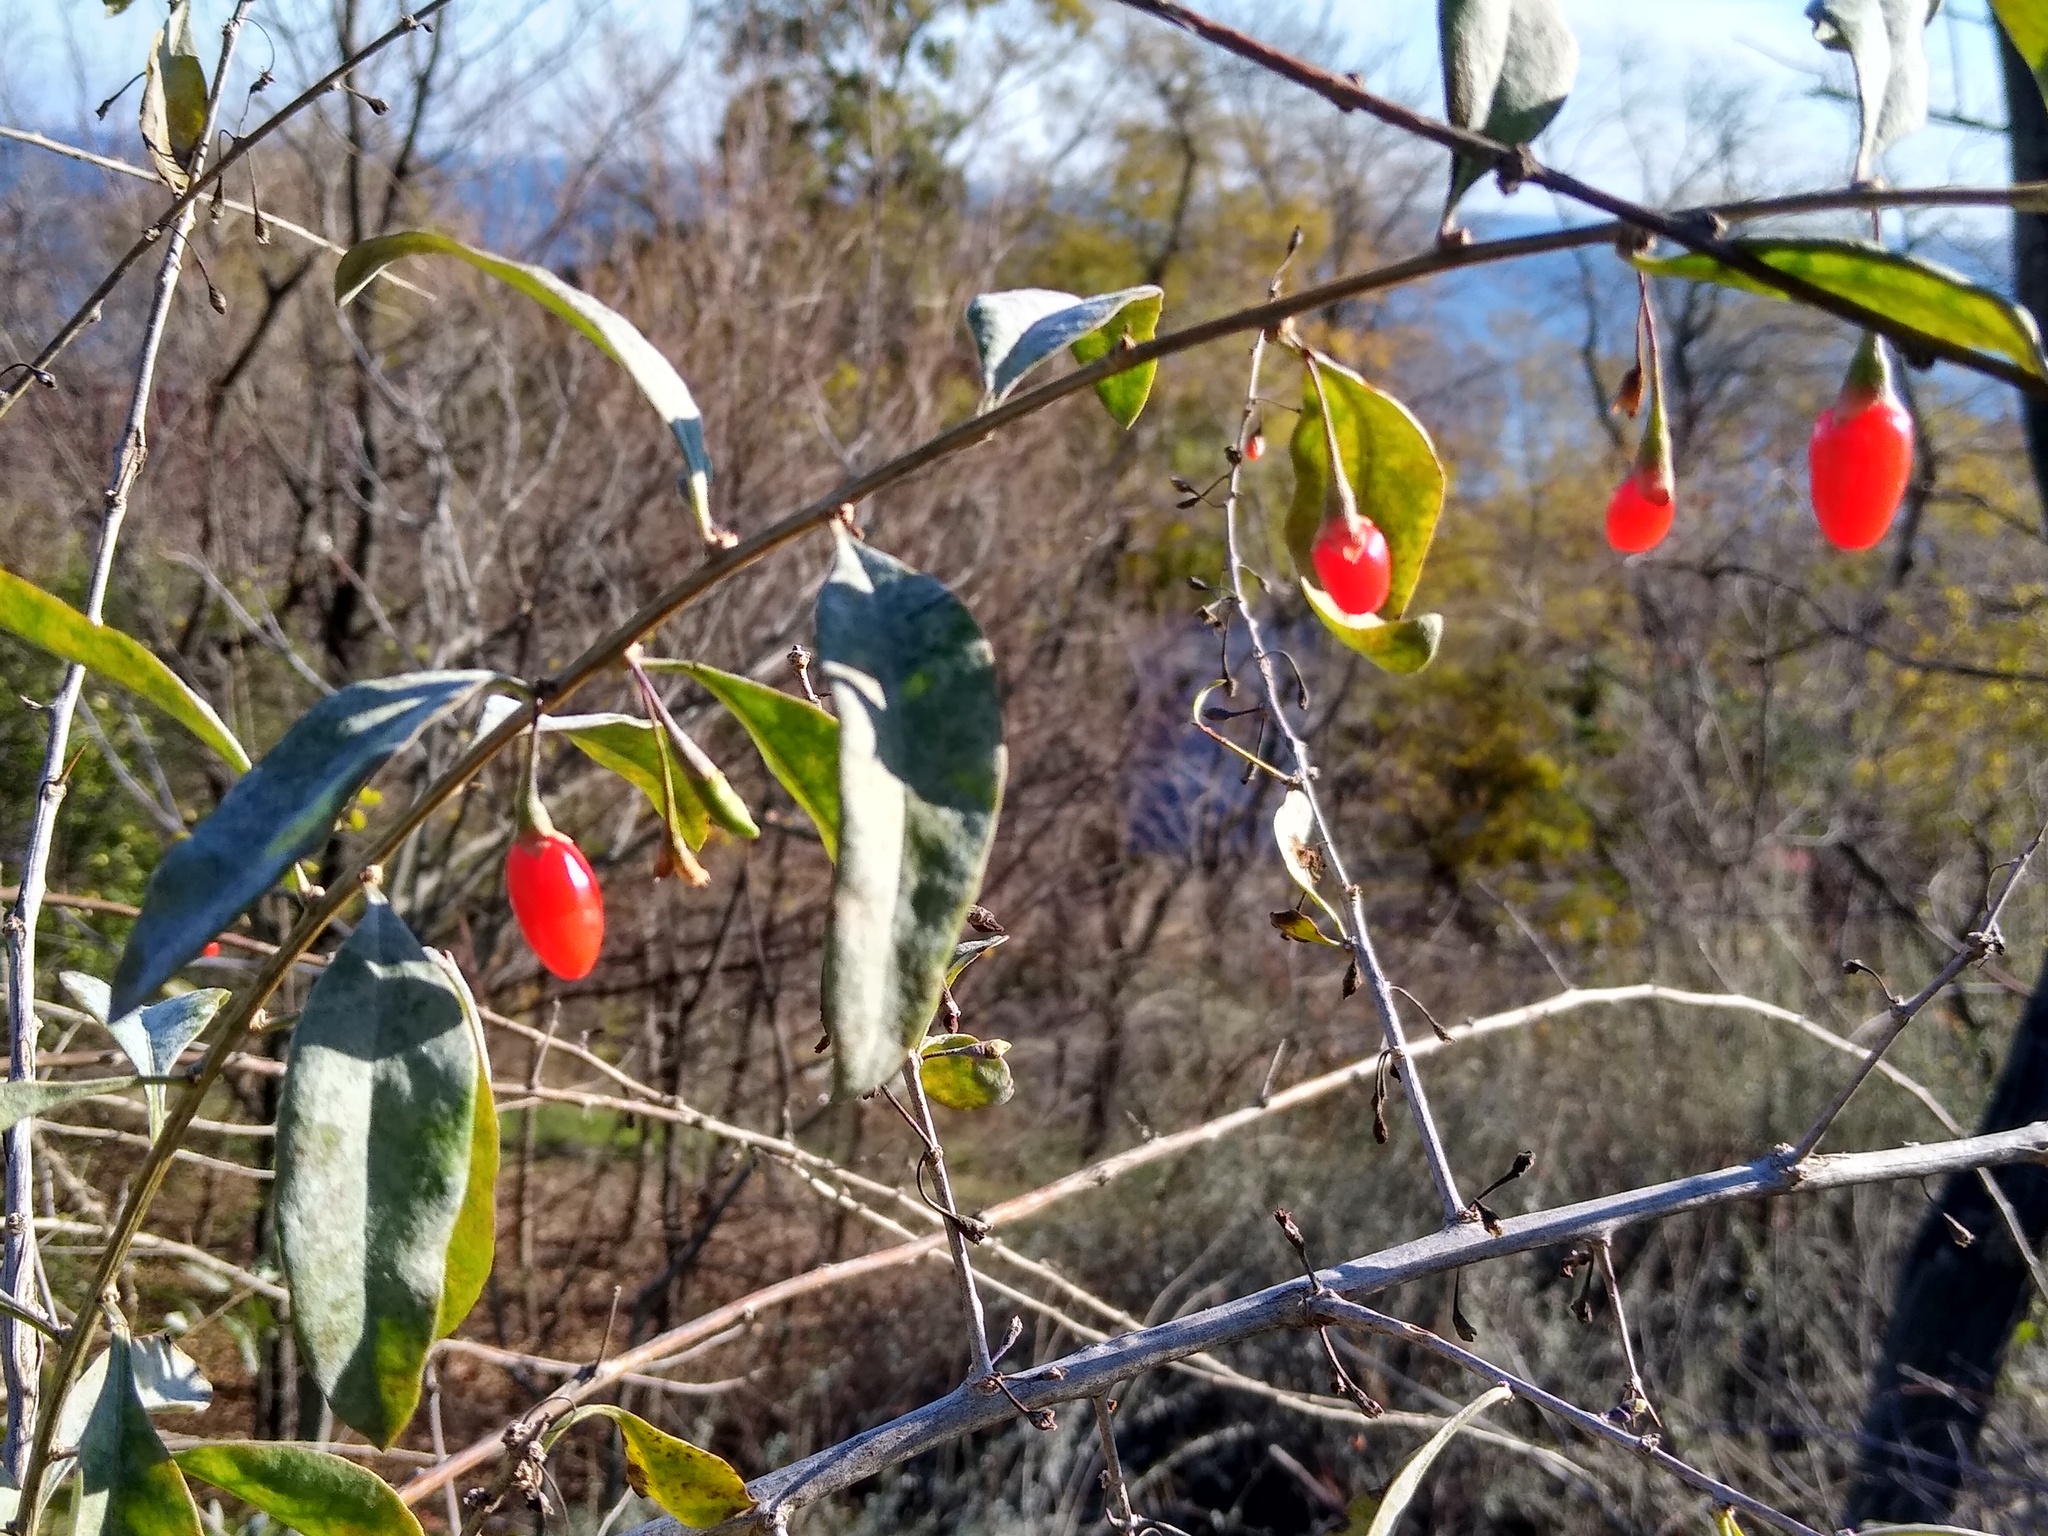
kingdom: Plantae
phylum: Tracheophyta
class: Magnoliopsida
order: Solanales
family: Solanaceae
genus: Lycium
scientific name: Lycium barbarum
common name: Duke of argyll's teaplant
